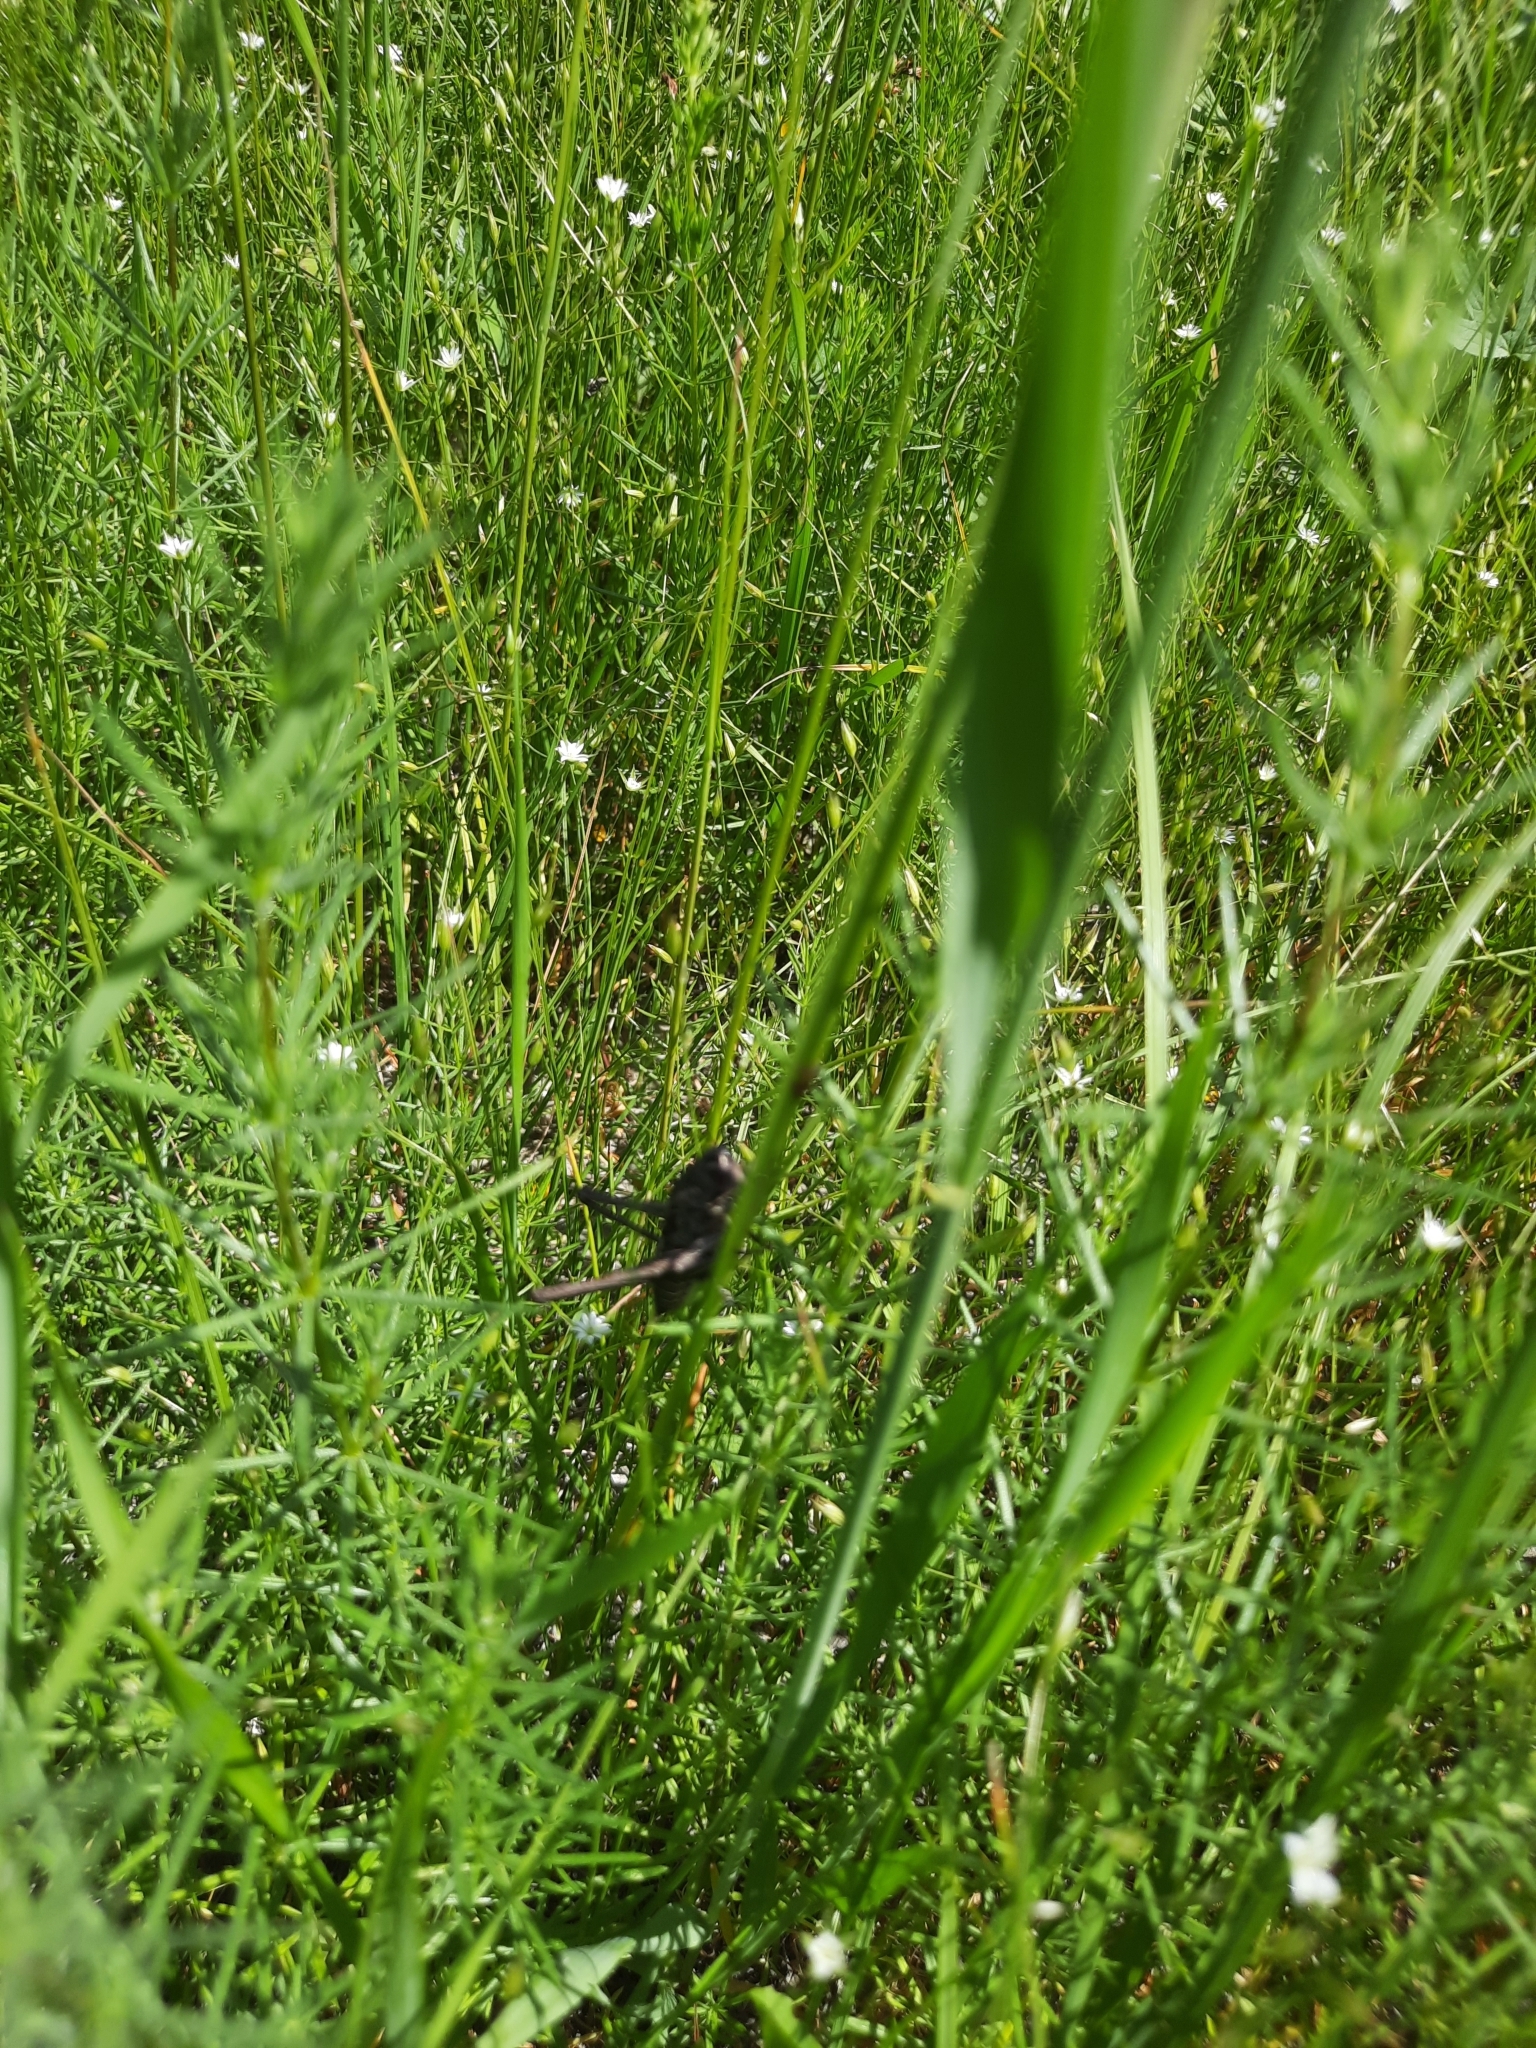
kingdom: Animalia
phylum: Arthropoda
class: Insecta
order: Orthoptera
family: Tettigoniidae
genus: Decticus
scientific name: Decticus verrucivorus
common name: Wart-biter
